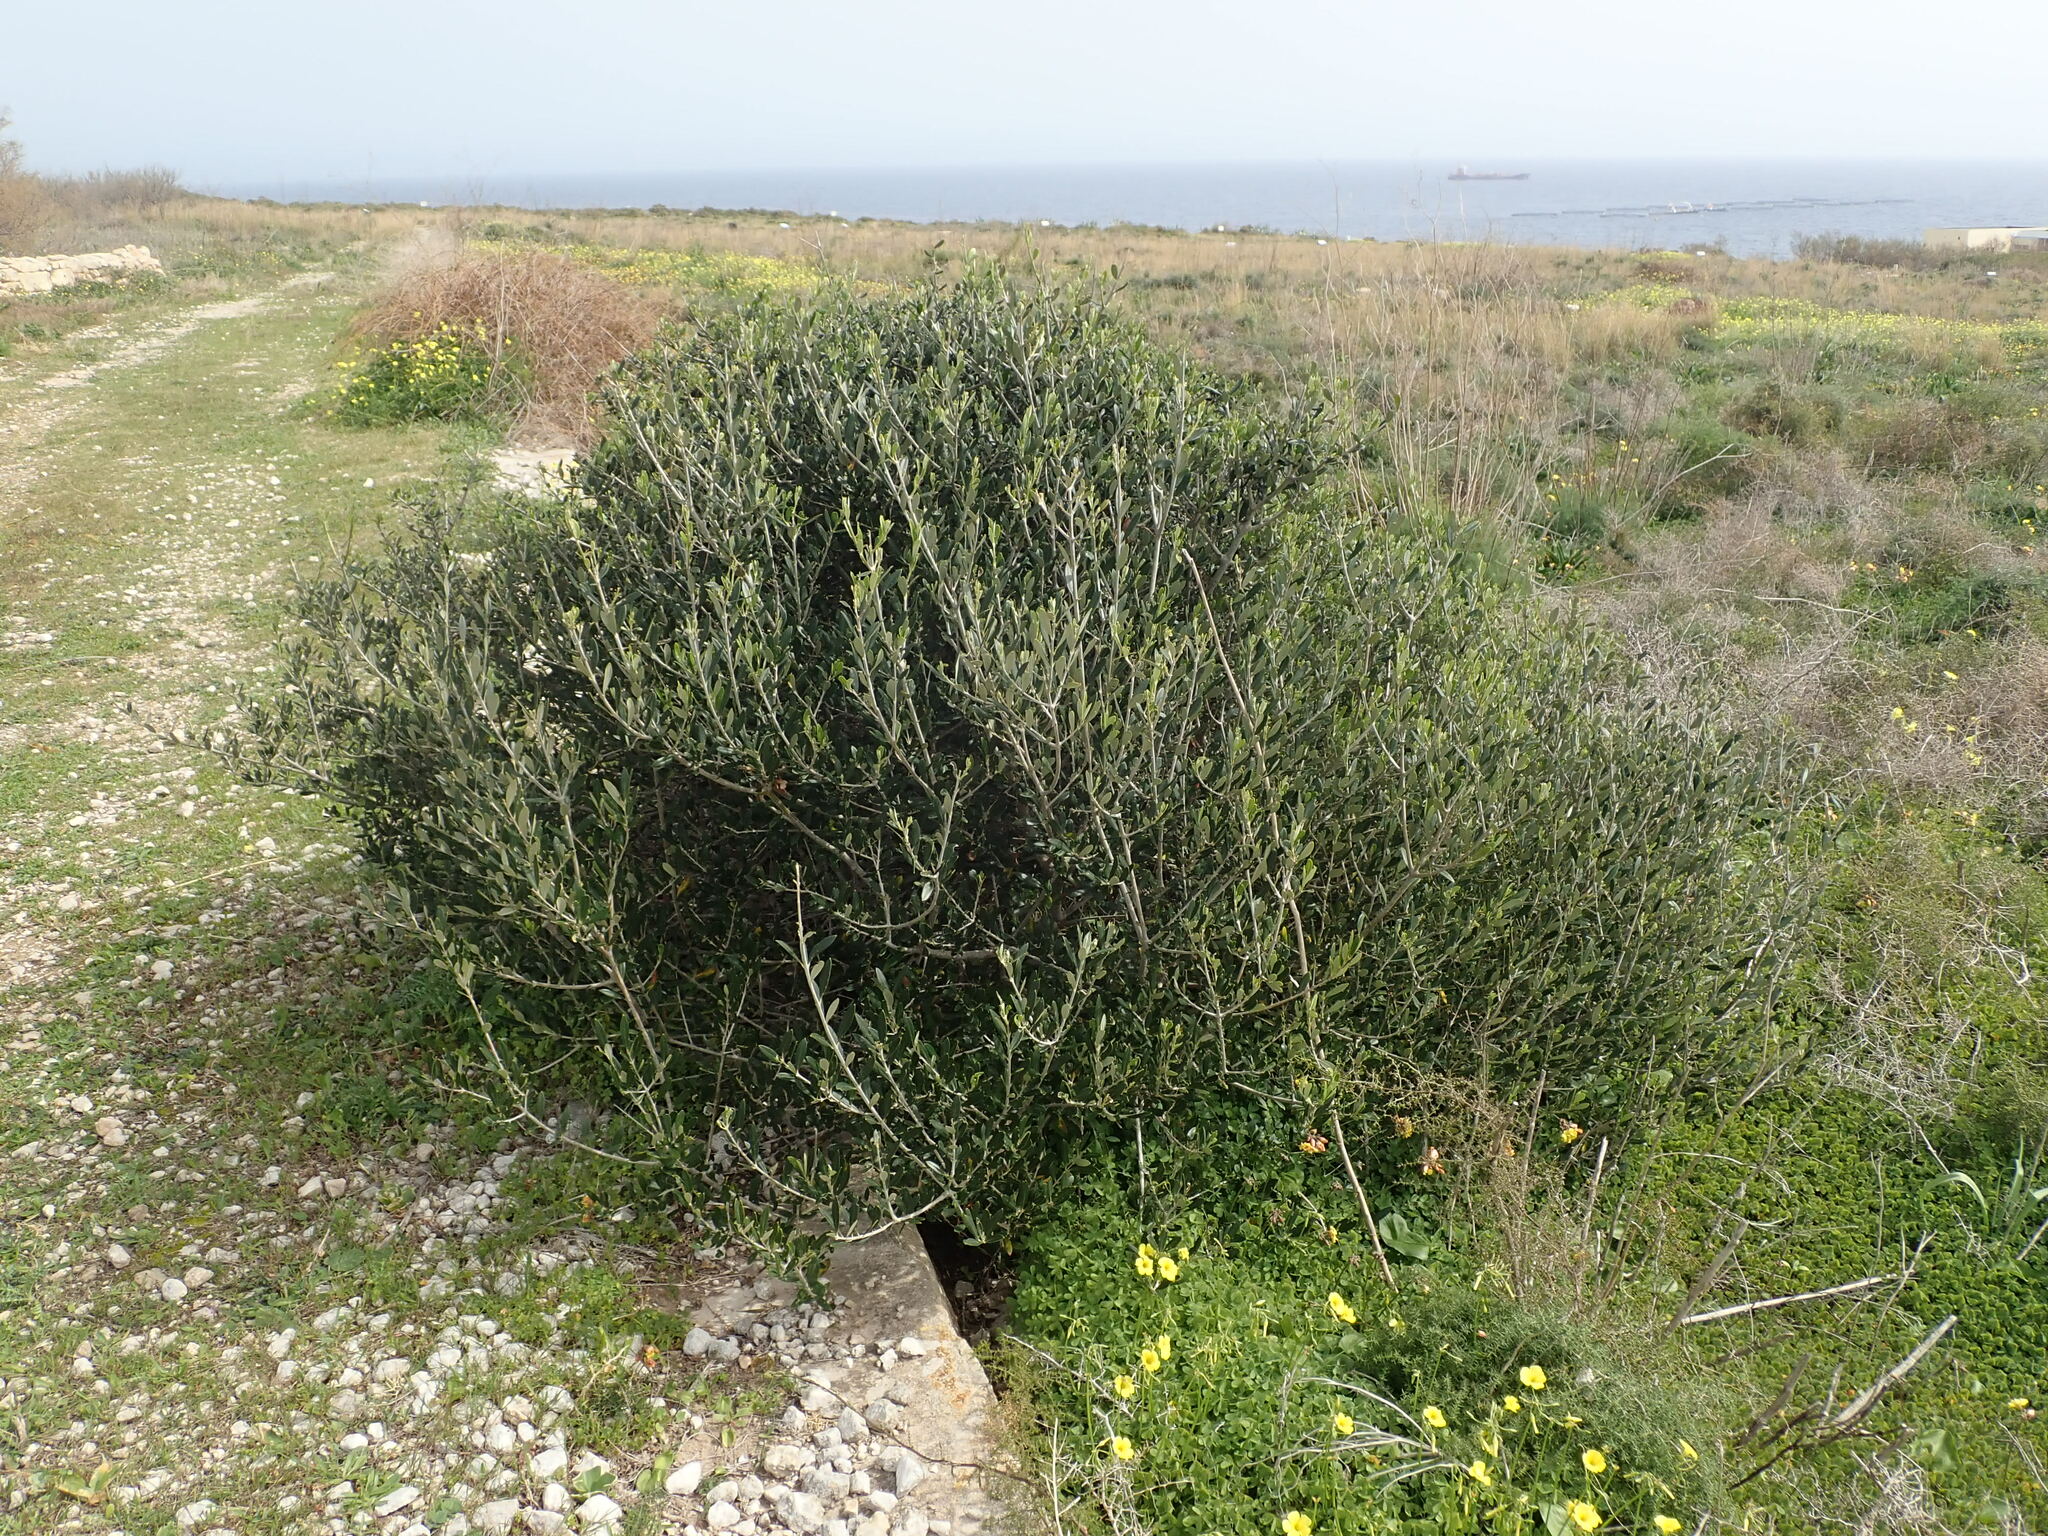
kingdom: Plantae
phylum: Tracheophyta
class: Magnoliopsida
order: Lamiales
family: Oleaceae
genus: Olea
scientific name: Olea europaea
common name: Olive
